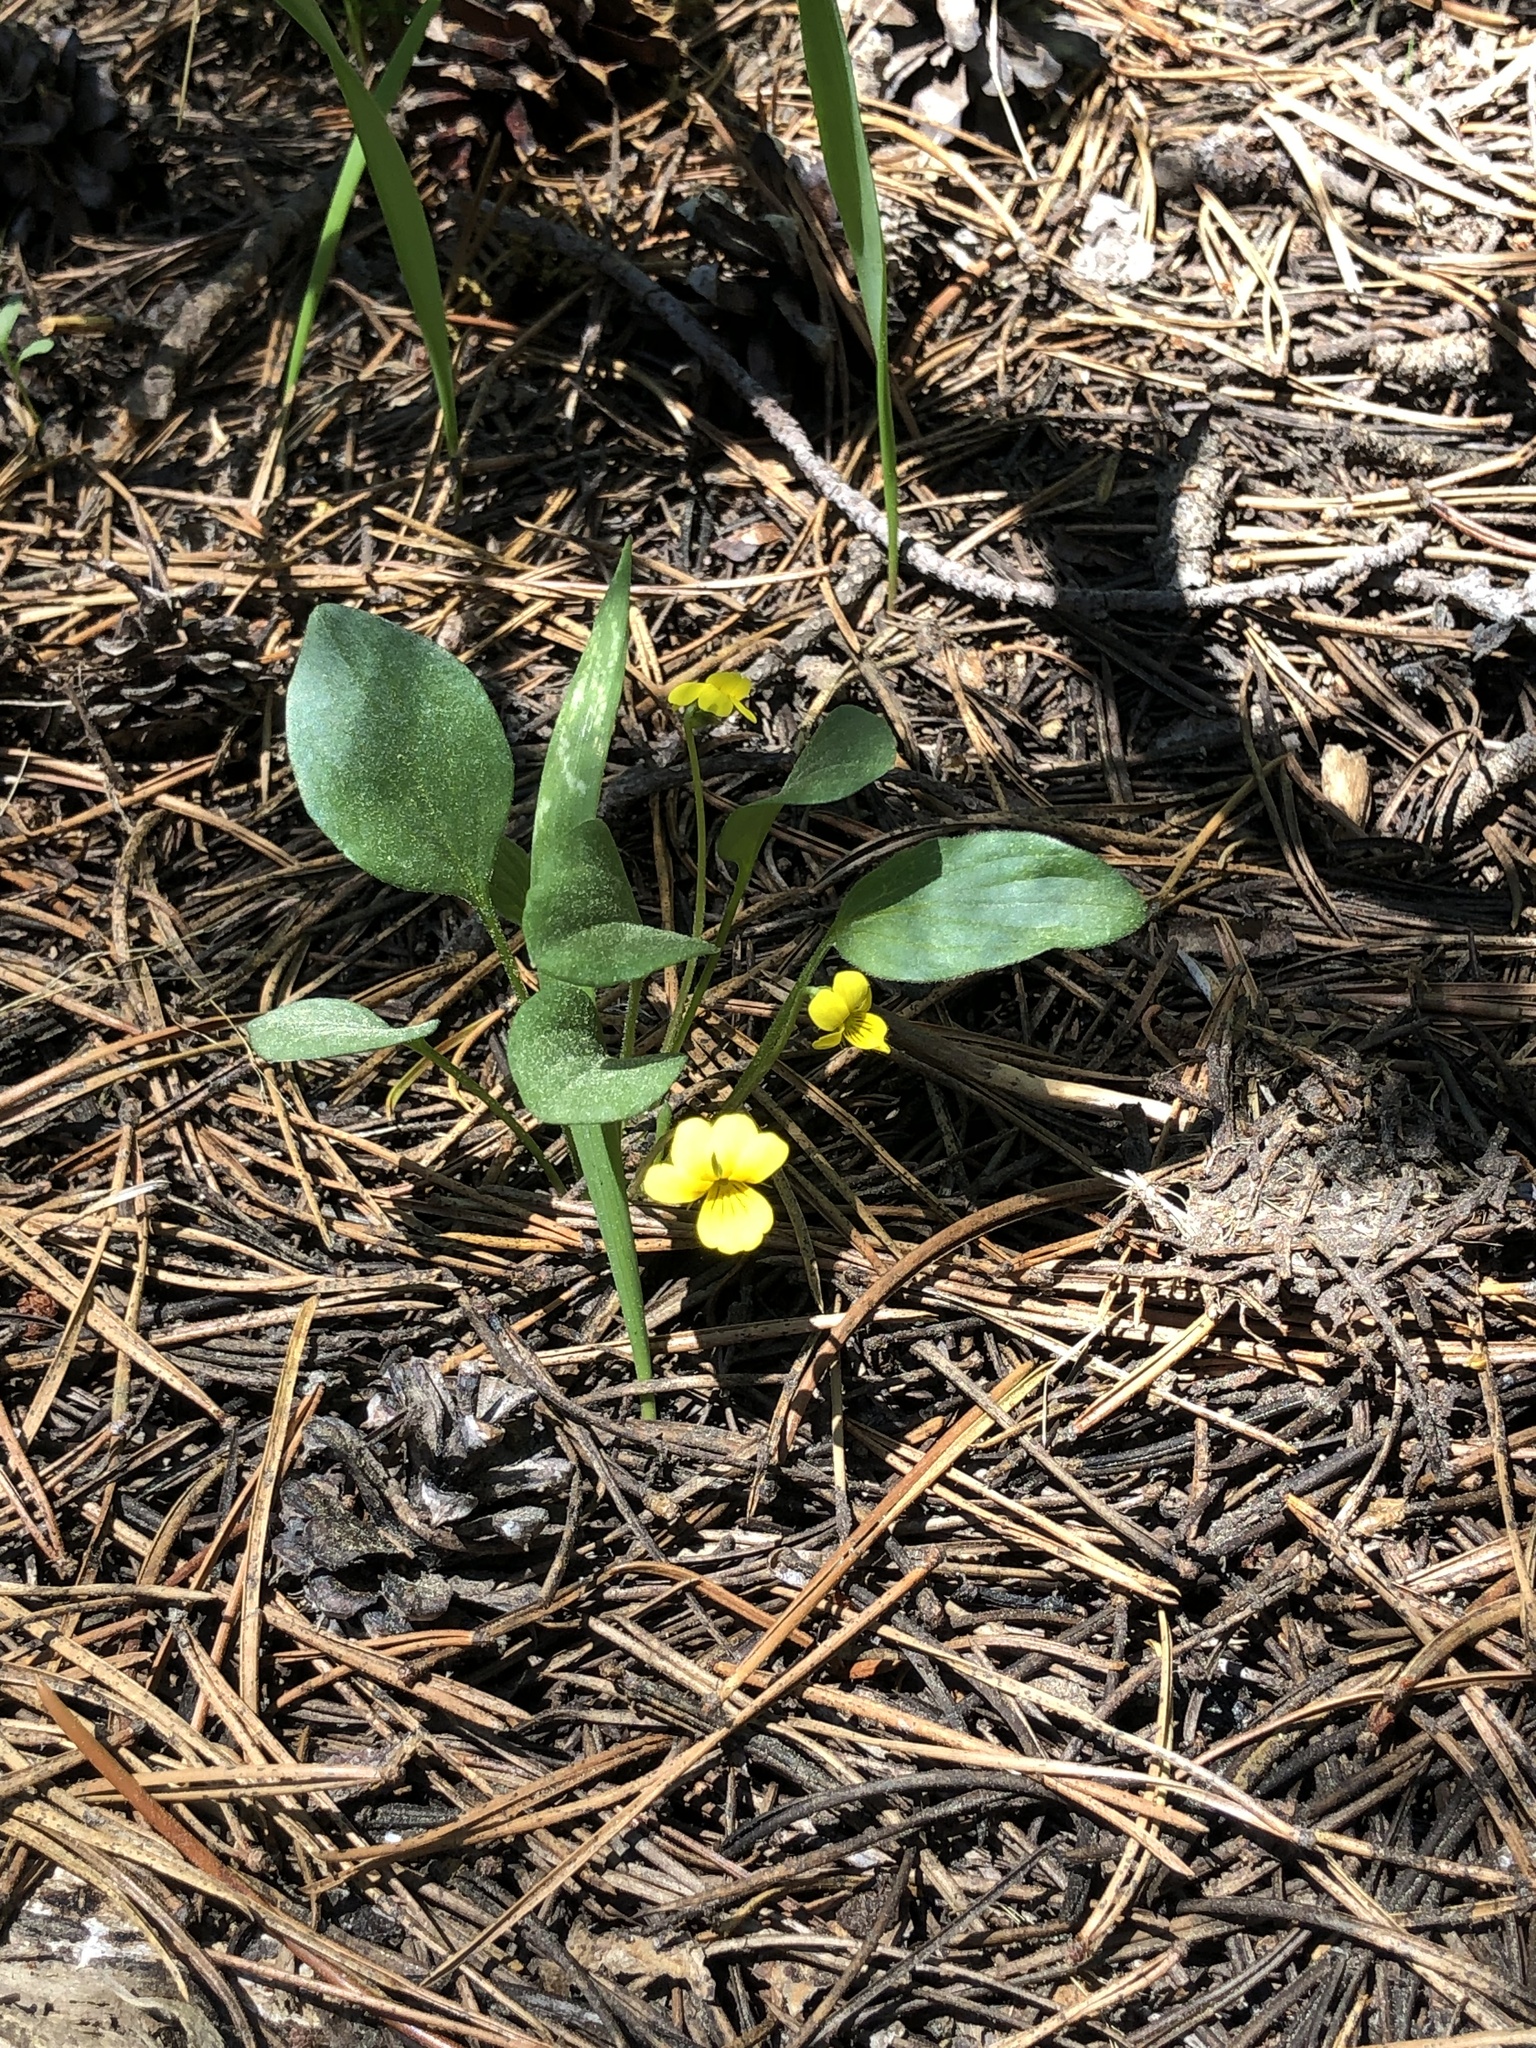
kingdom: Plantae
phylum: Tracheophyta
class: Magnoliopsida
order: Malpighiales
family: Violaceae
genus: Viola
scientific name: Viola bakeri
